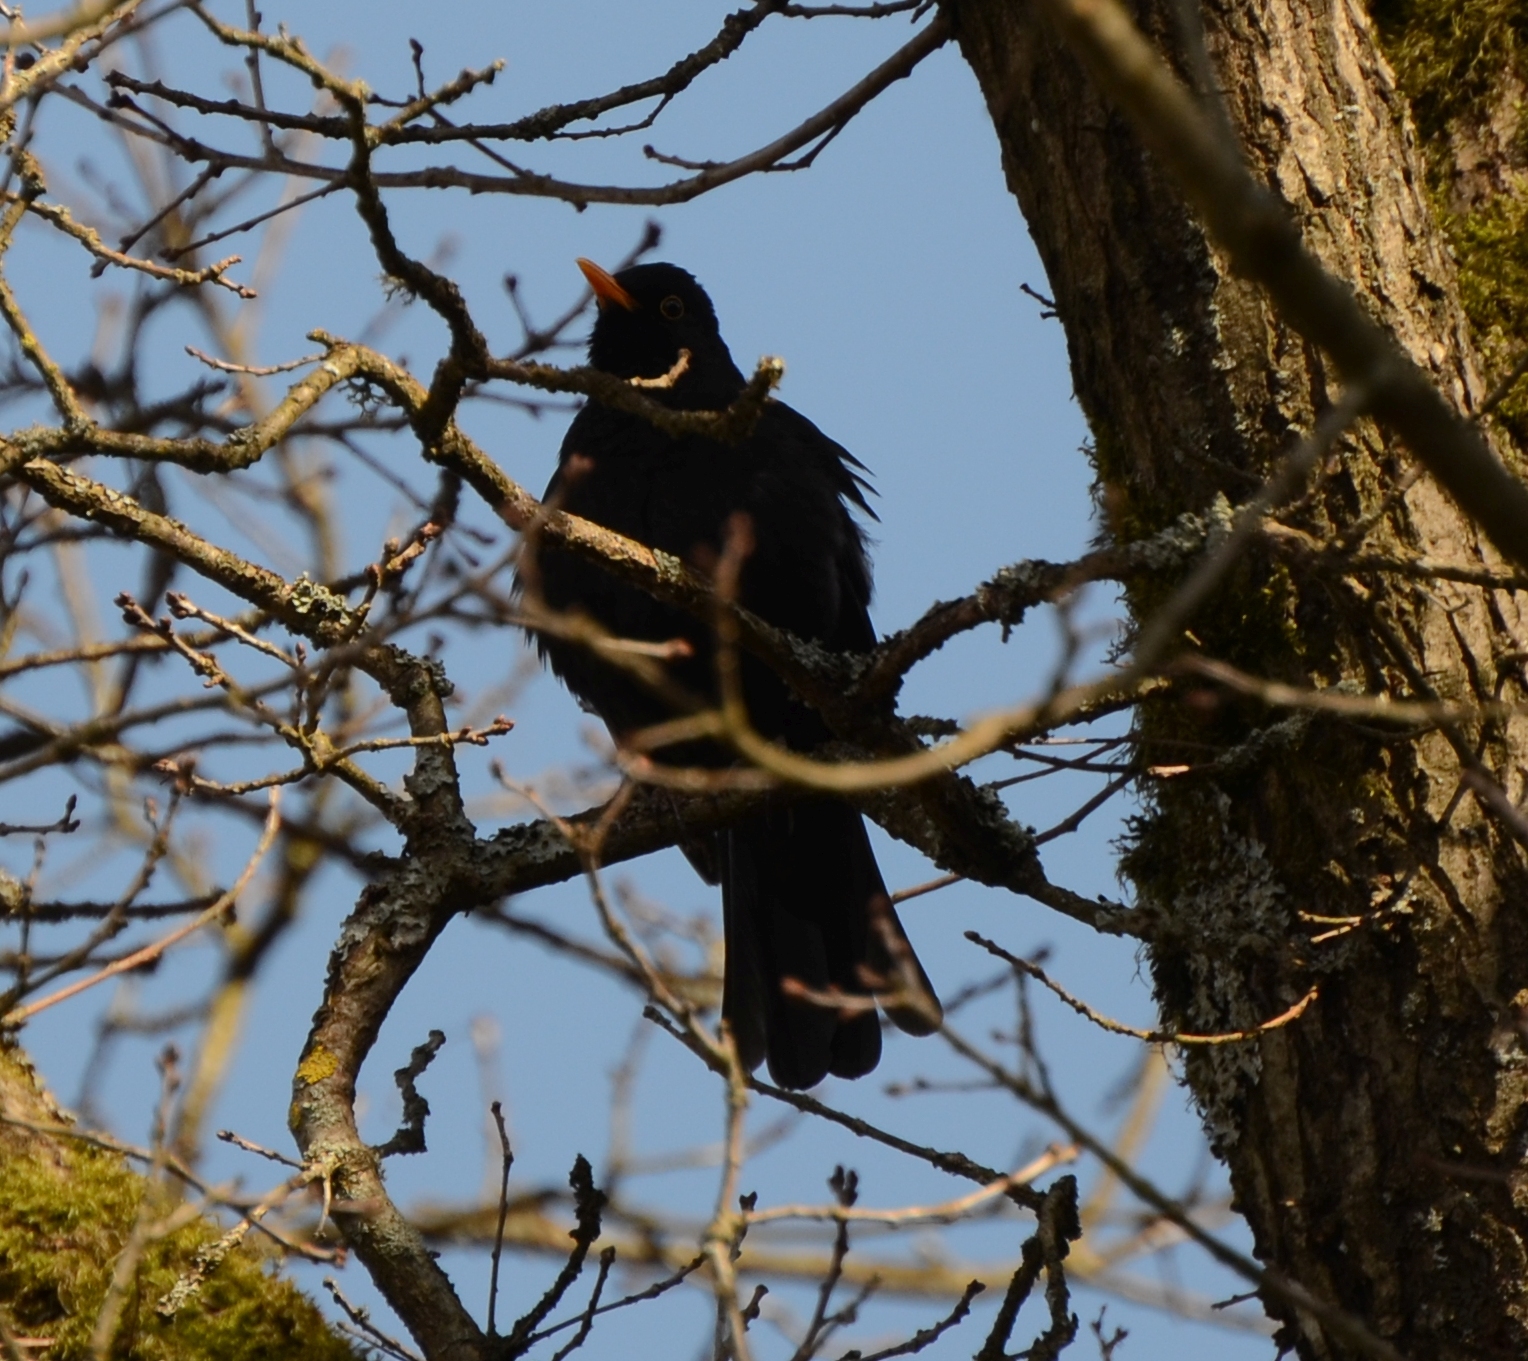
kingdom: Animalia
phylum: Chordata
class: Aves
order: Passeriformes
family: Turdidae
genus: Turdus
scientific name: Turdus merula
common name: Common blackbird
